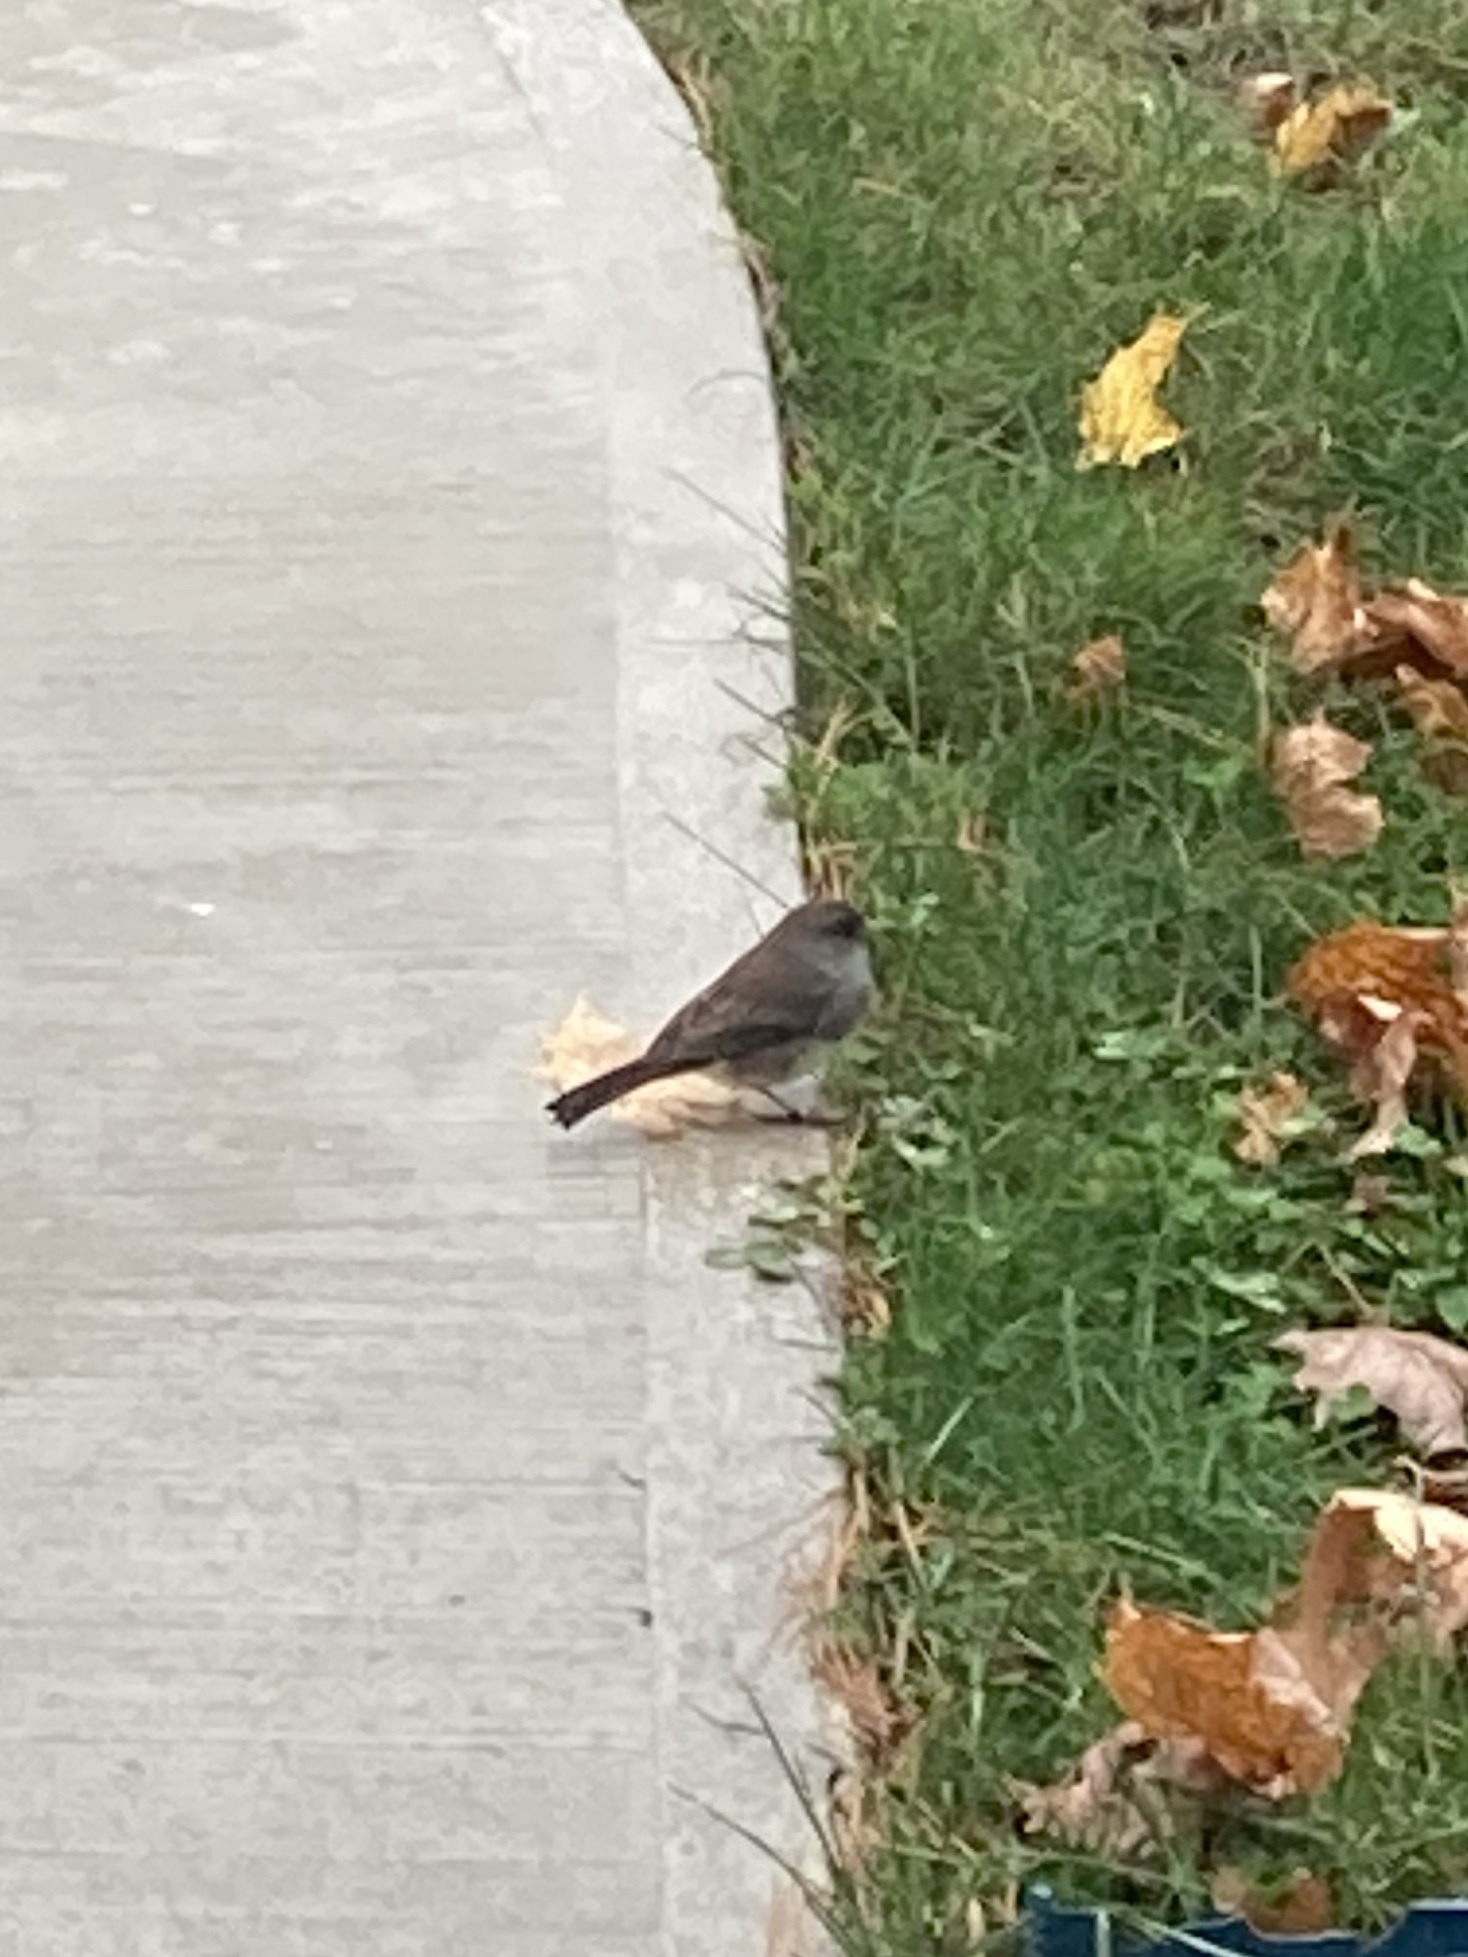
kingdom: Animalia
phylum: Chordata
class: Aves
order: Passeriformes
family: Passerellidae
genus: Junco
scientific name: Junco hyemalis
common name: Dark-eyed junco
